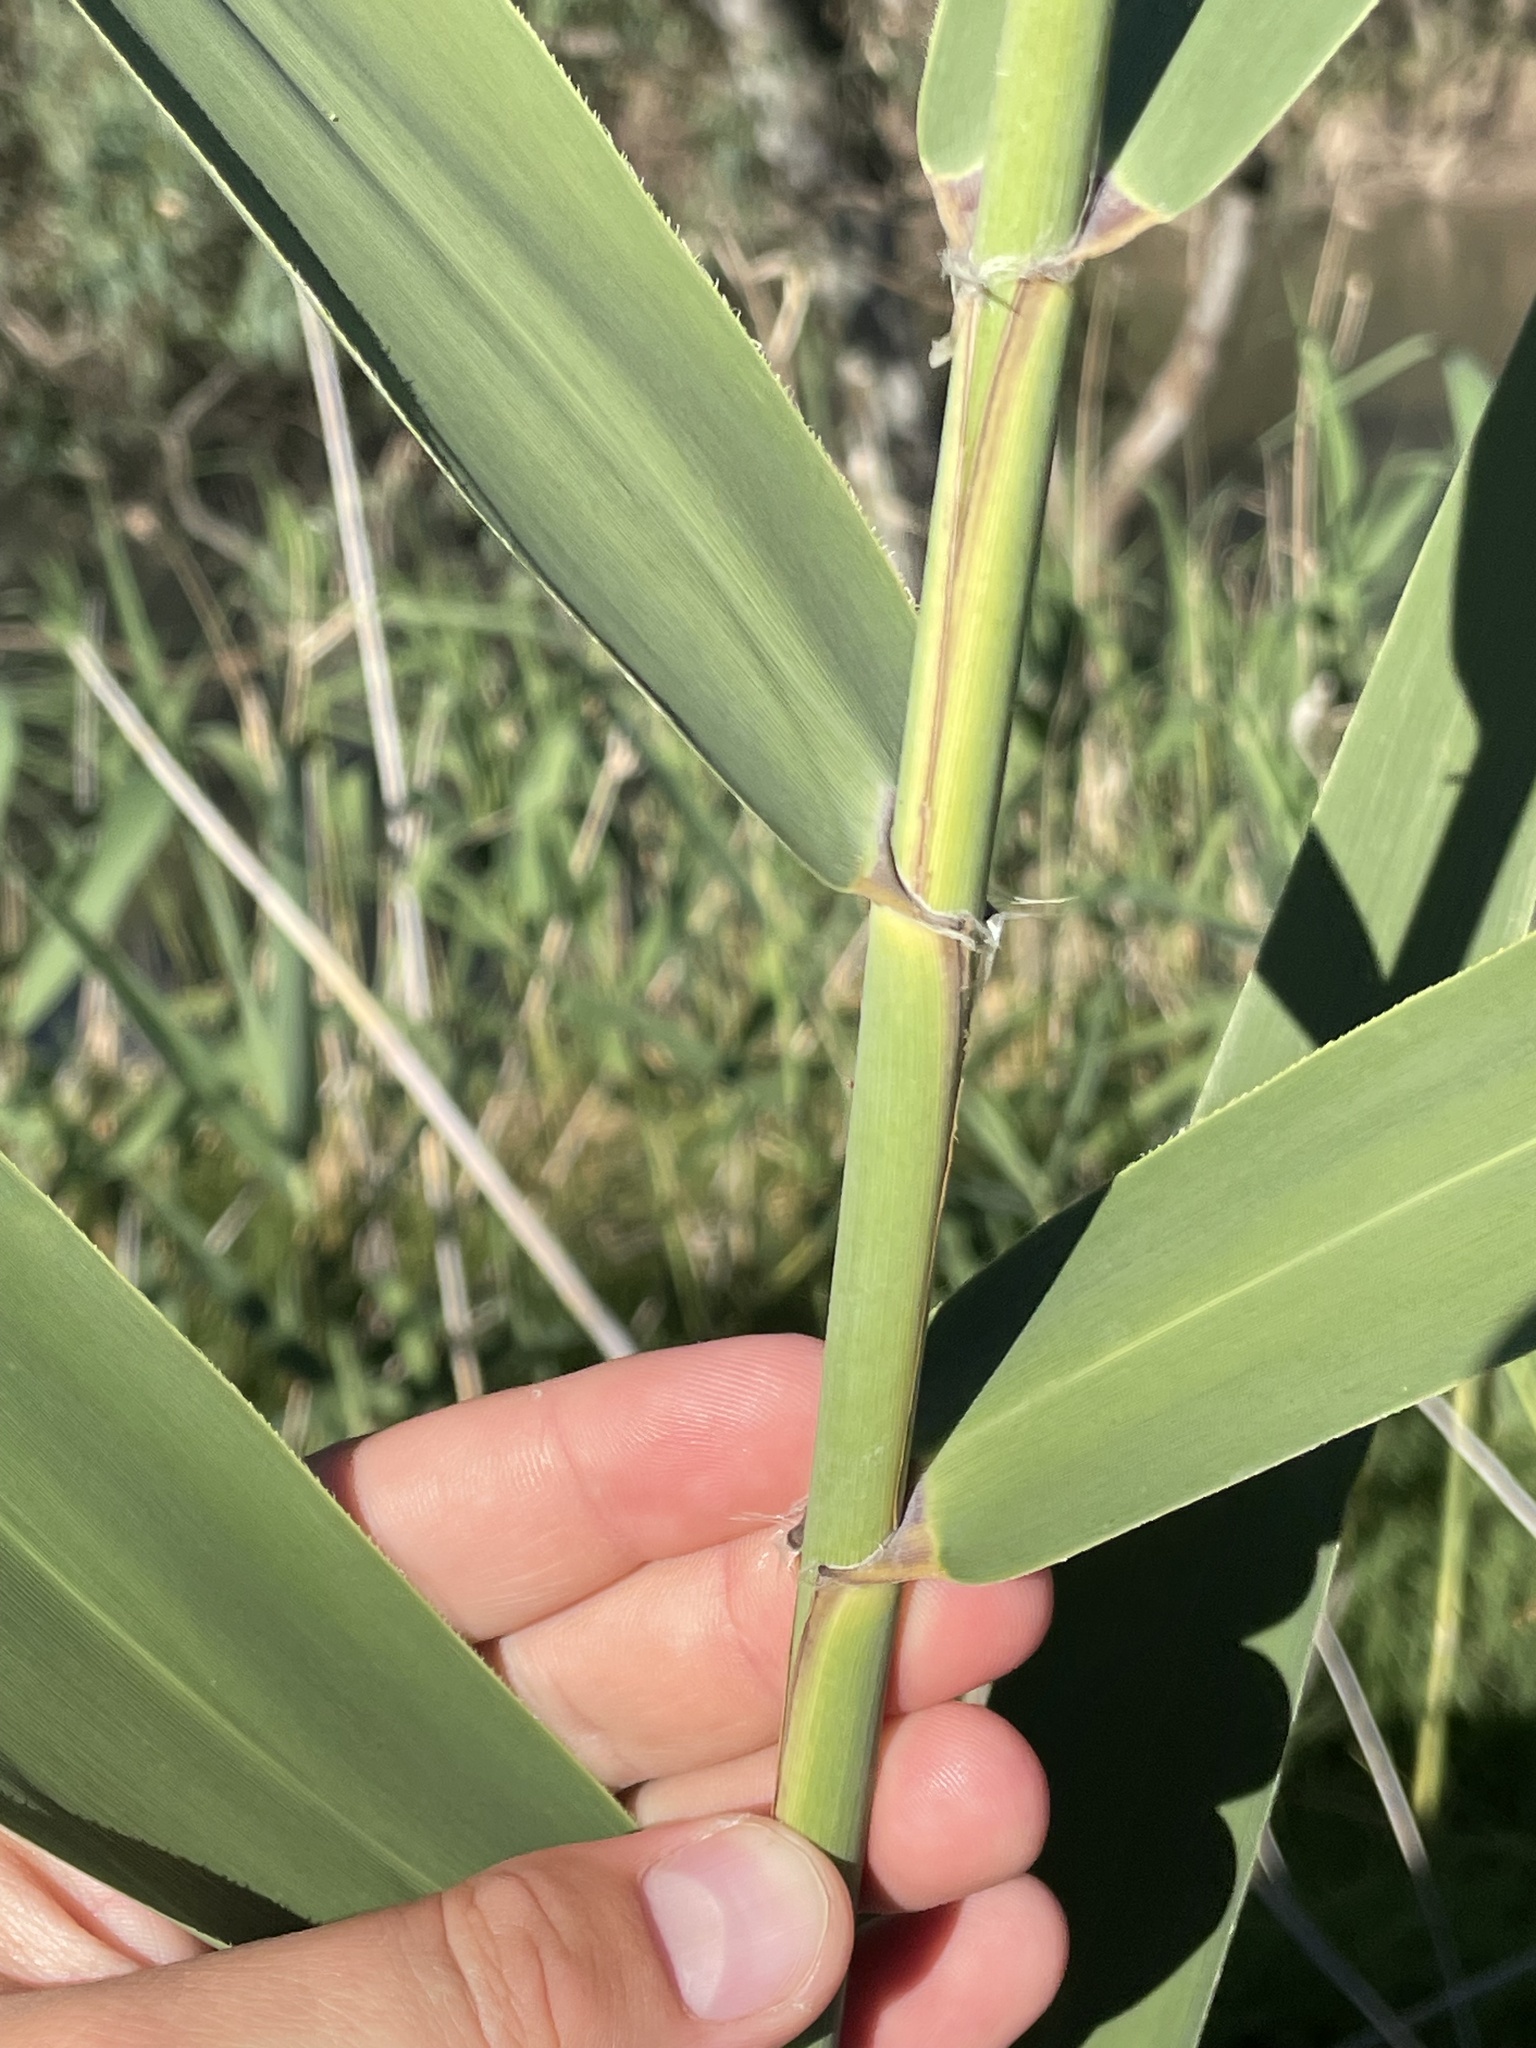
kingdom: Plantae
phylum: Tracheophyta
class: Liliopsida
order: Poales
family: Poaceae
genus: Phragmites
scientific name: Phragmites australis
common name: Common reed
